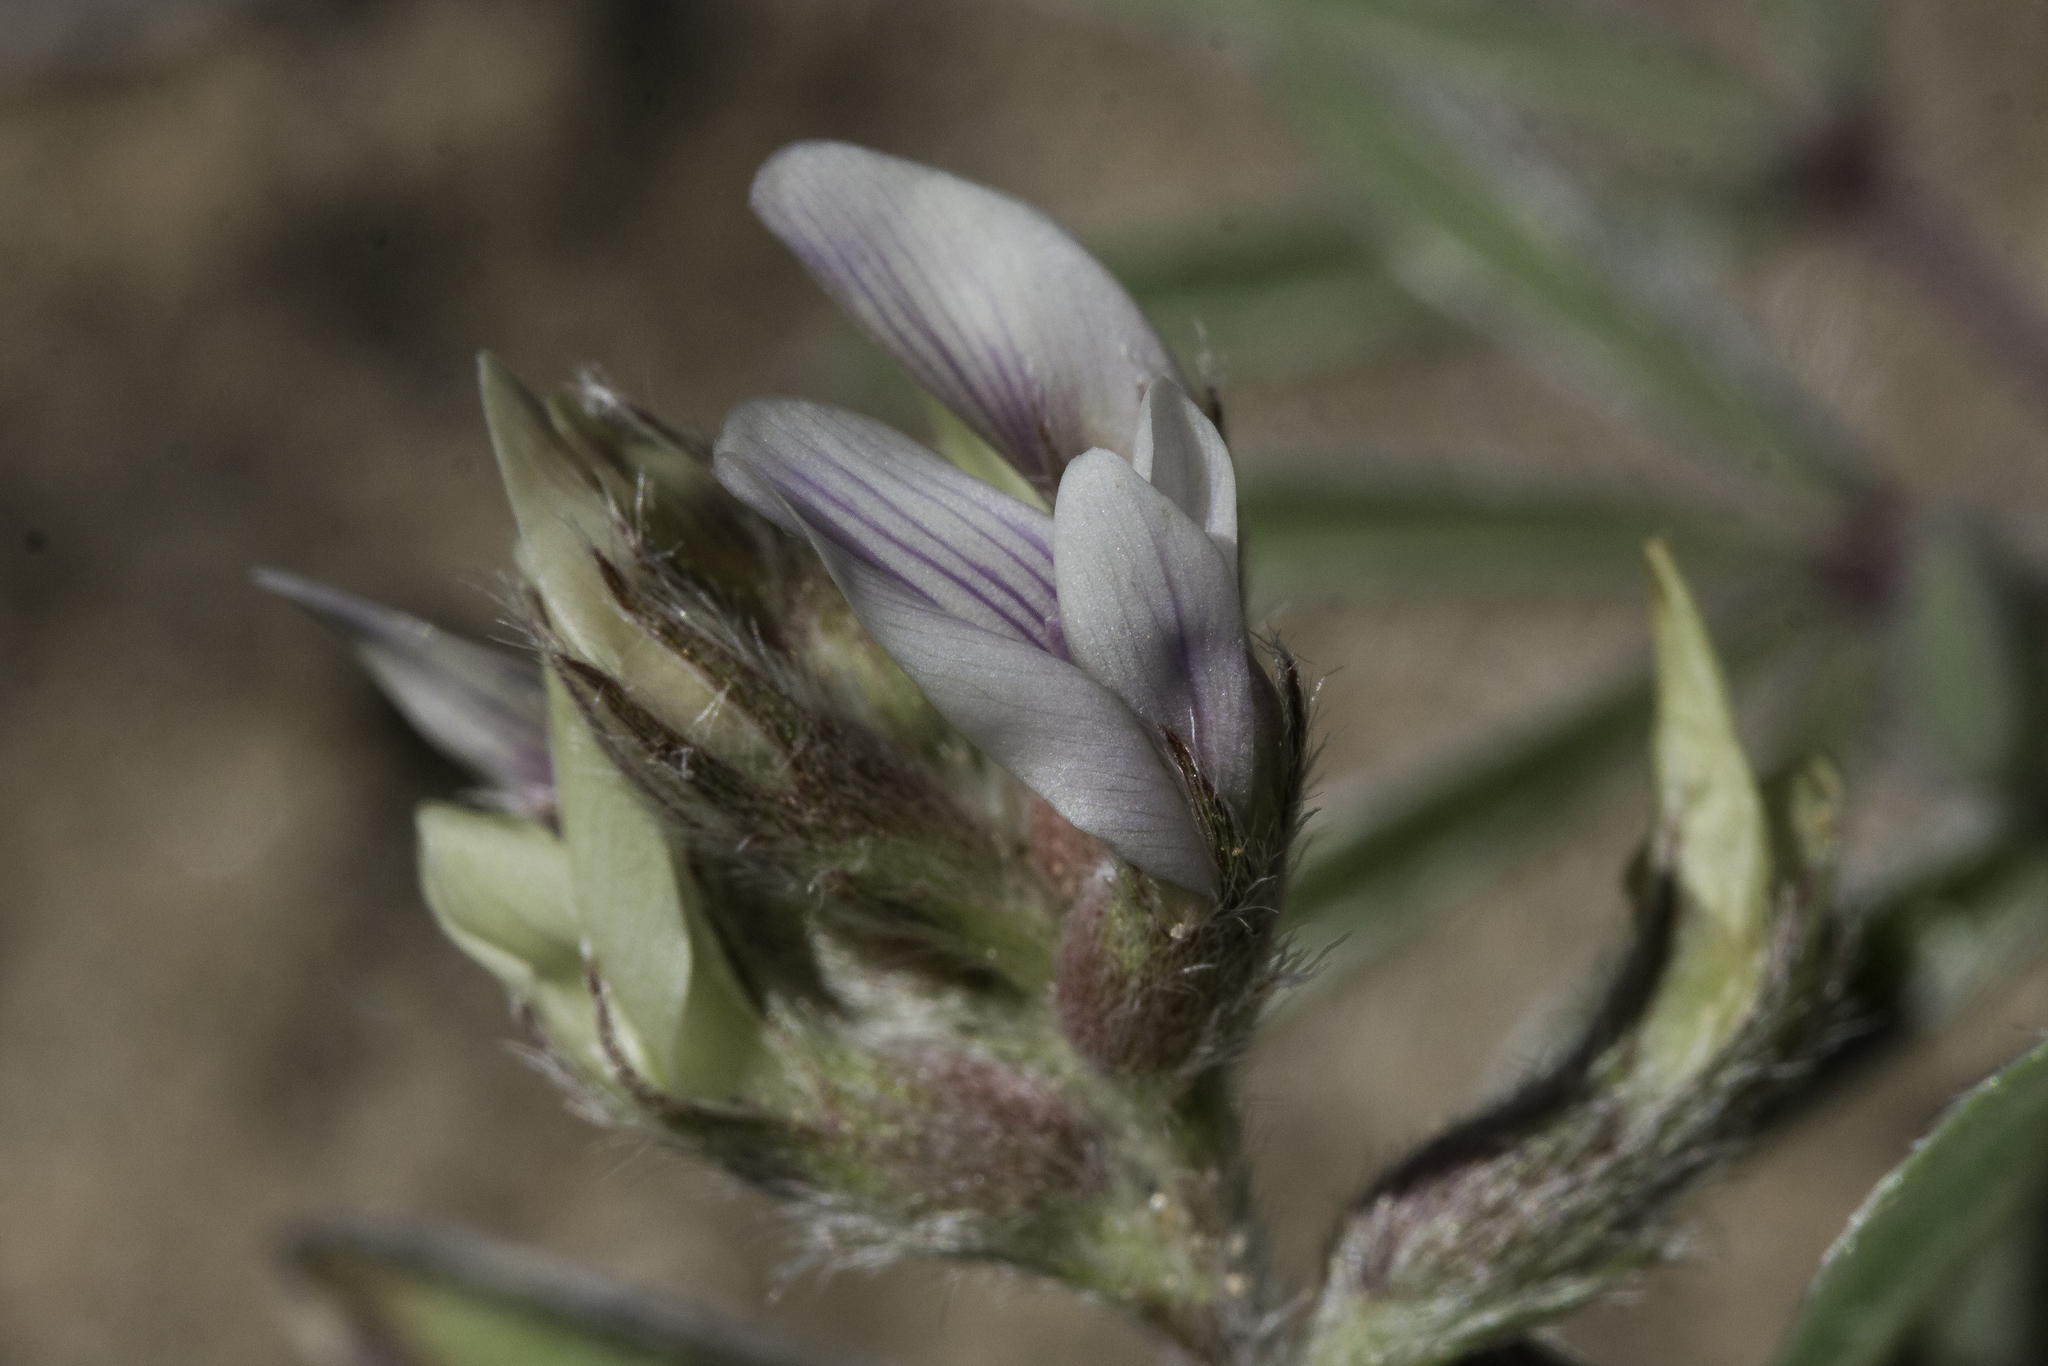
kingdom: Plantae
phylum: Tracheophyta
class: Magnoliopsida
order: Fabales
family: Fabaceae
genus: Astragalus
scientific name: Astragalus lotiflorus
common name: Lotus milk-vetch
